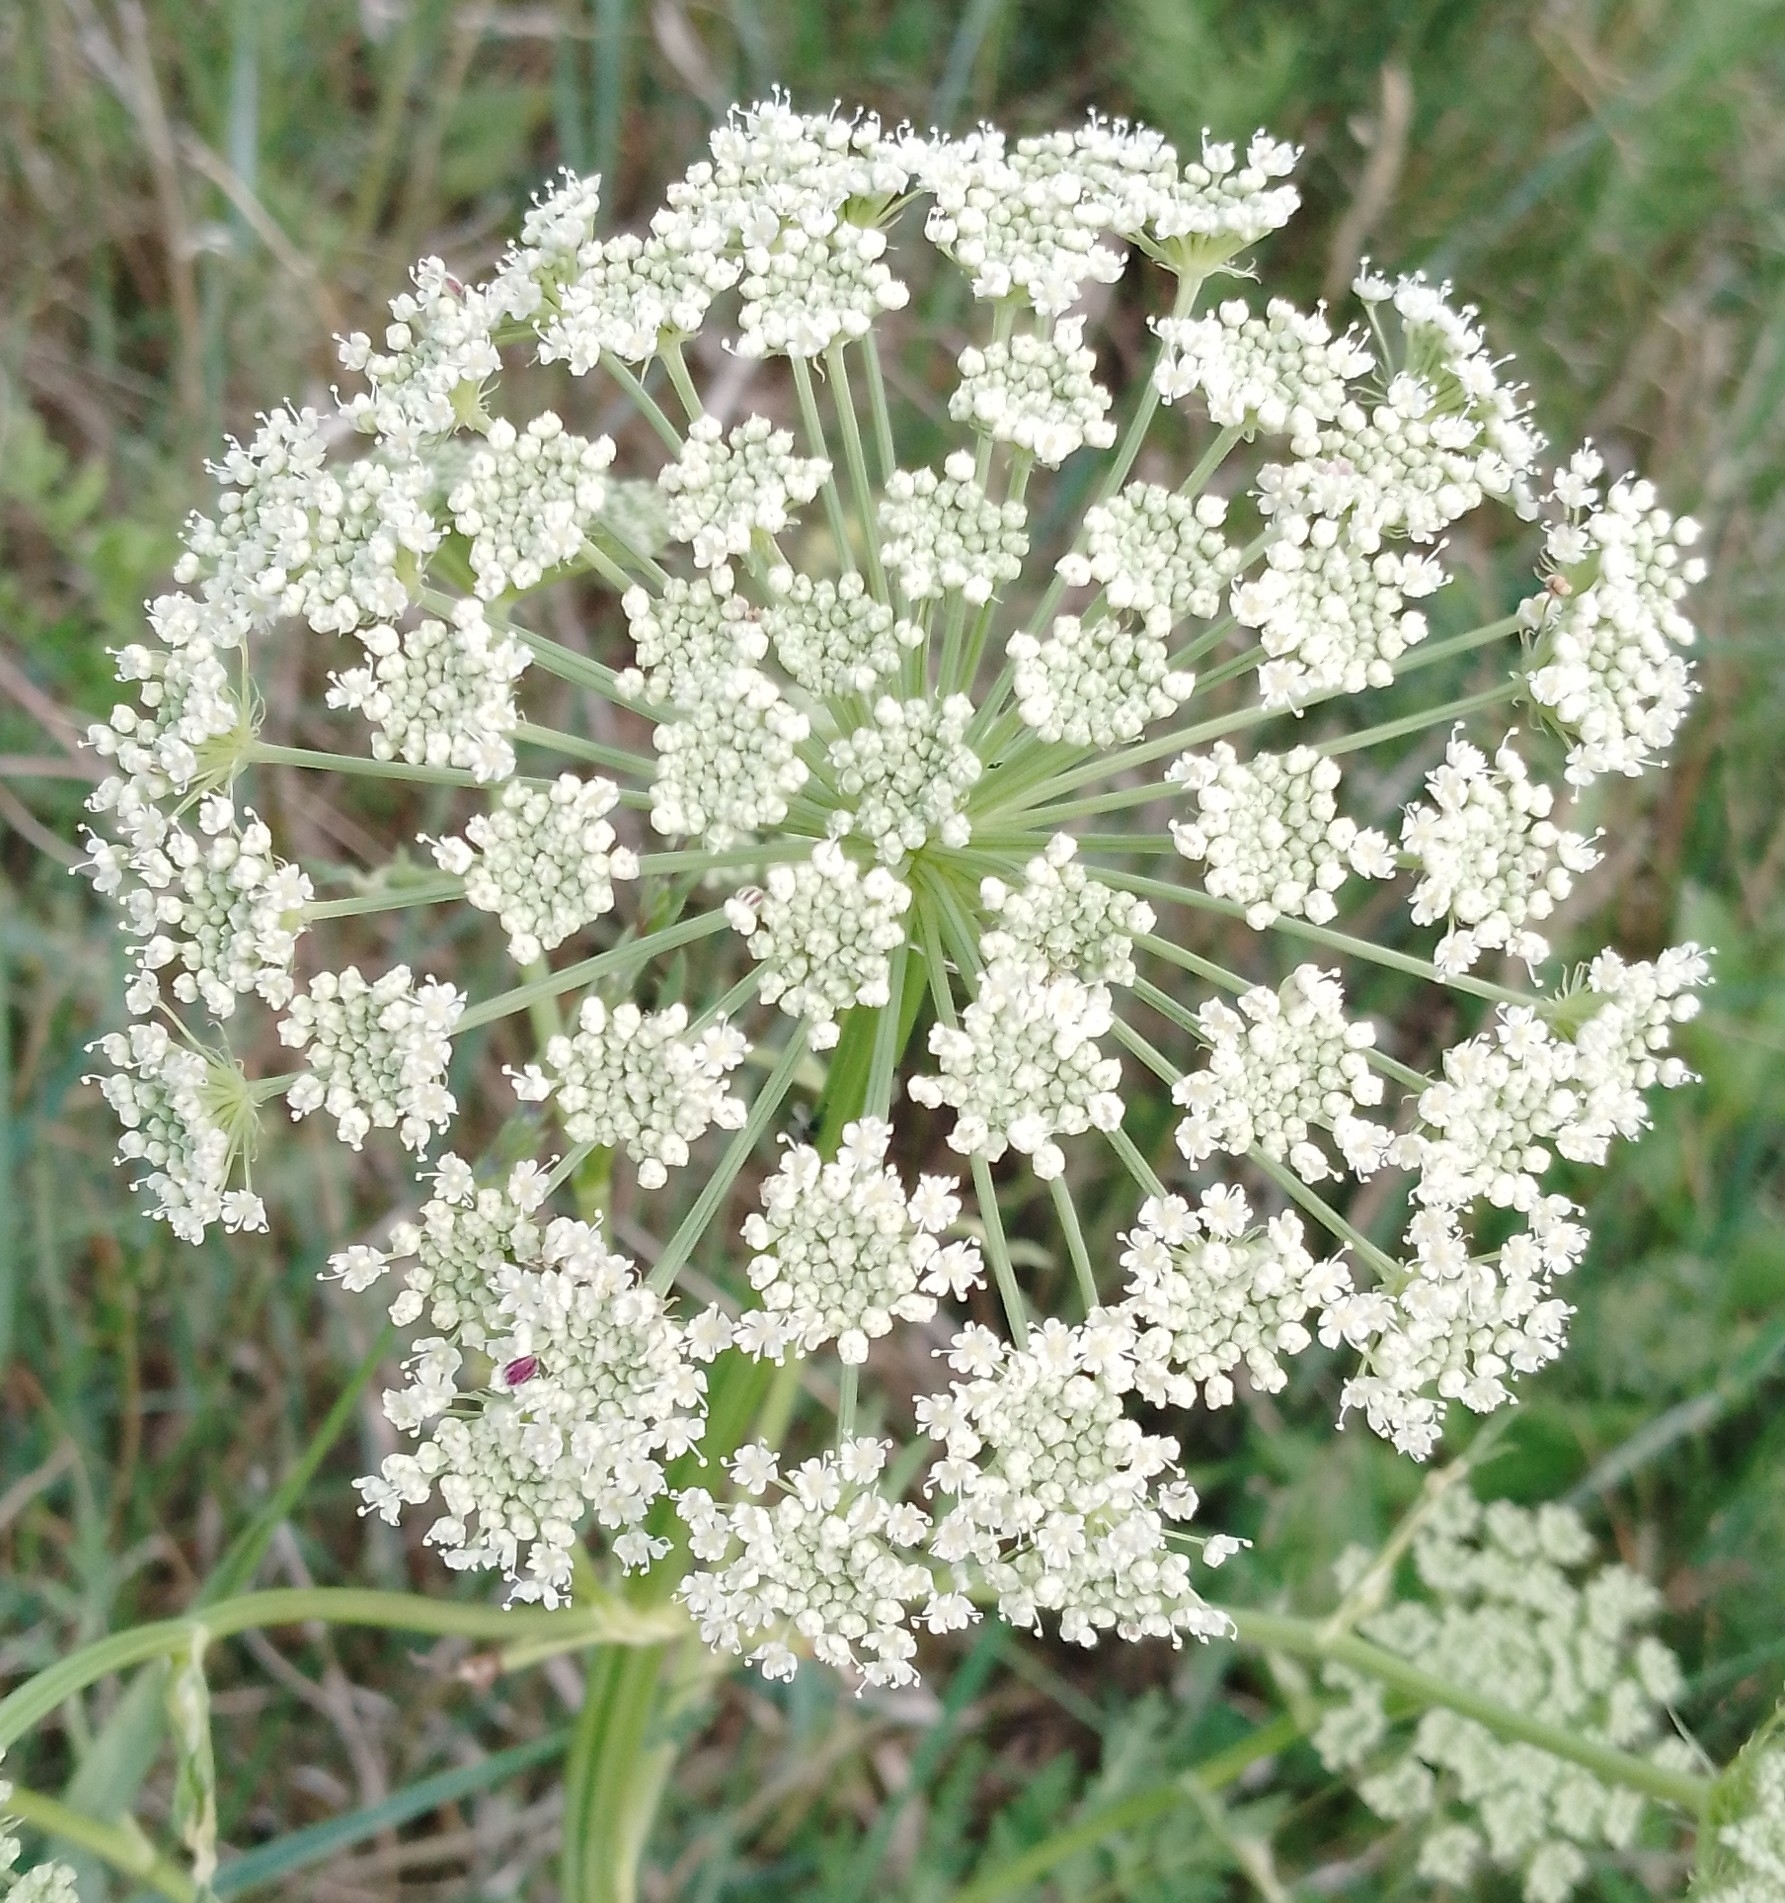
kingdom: Plantae
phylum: Tracheophyta
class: Magnoliopsida
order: Apiales
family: Apiaceae
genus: Seseli
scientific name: Seseli libanotis
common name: Mooncarrot
